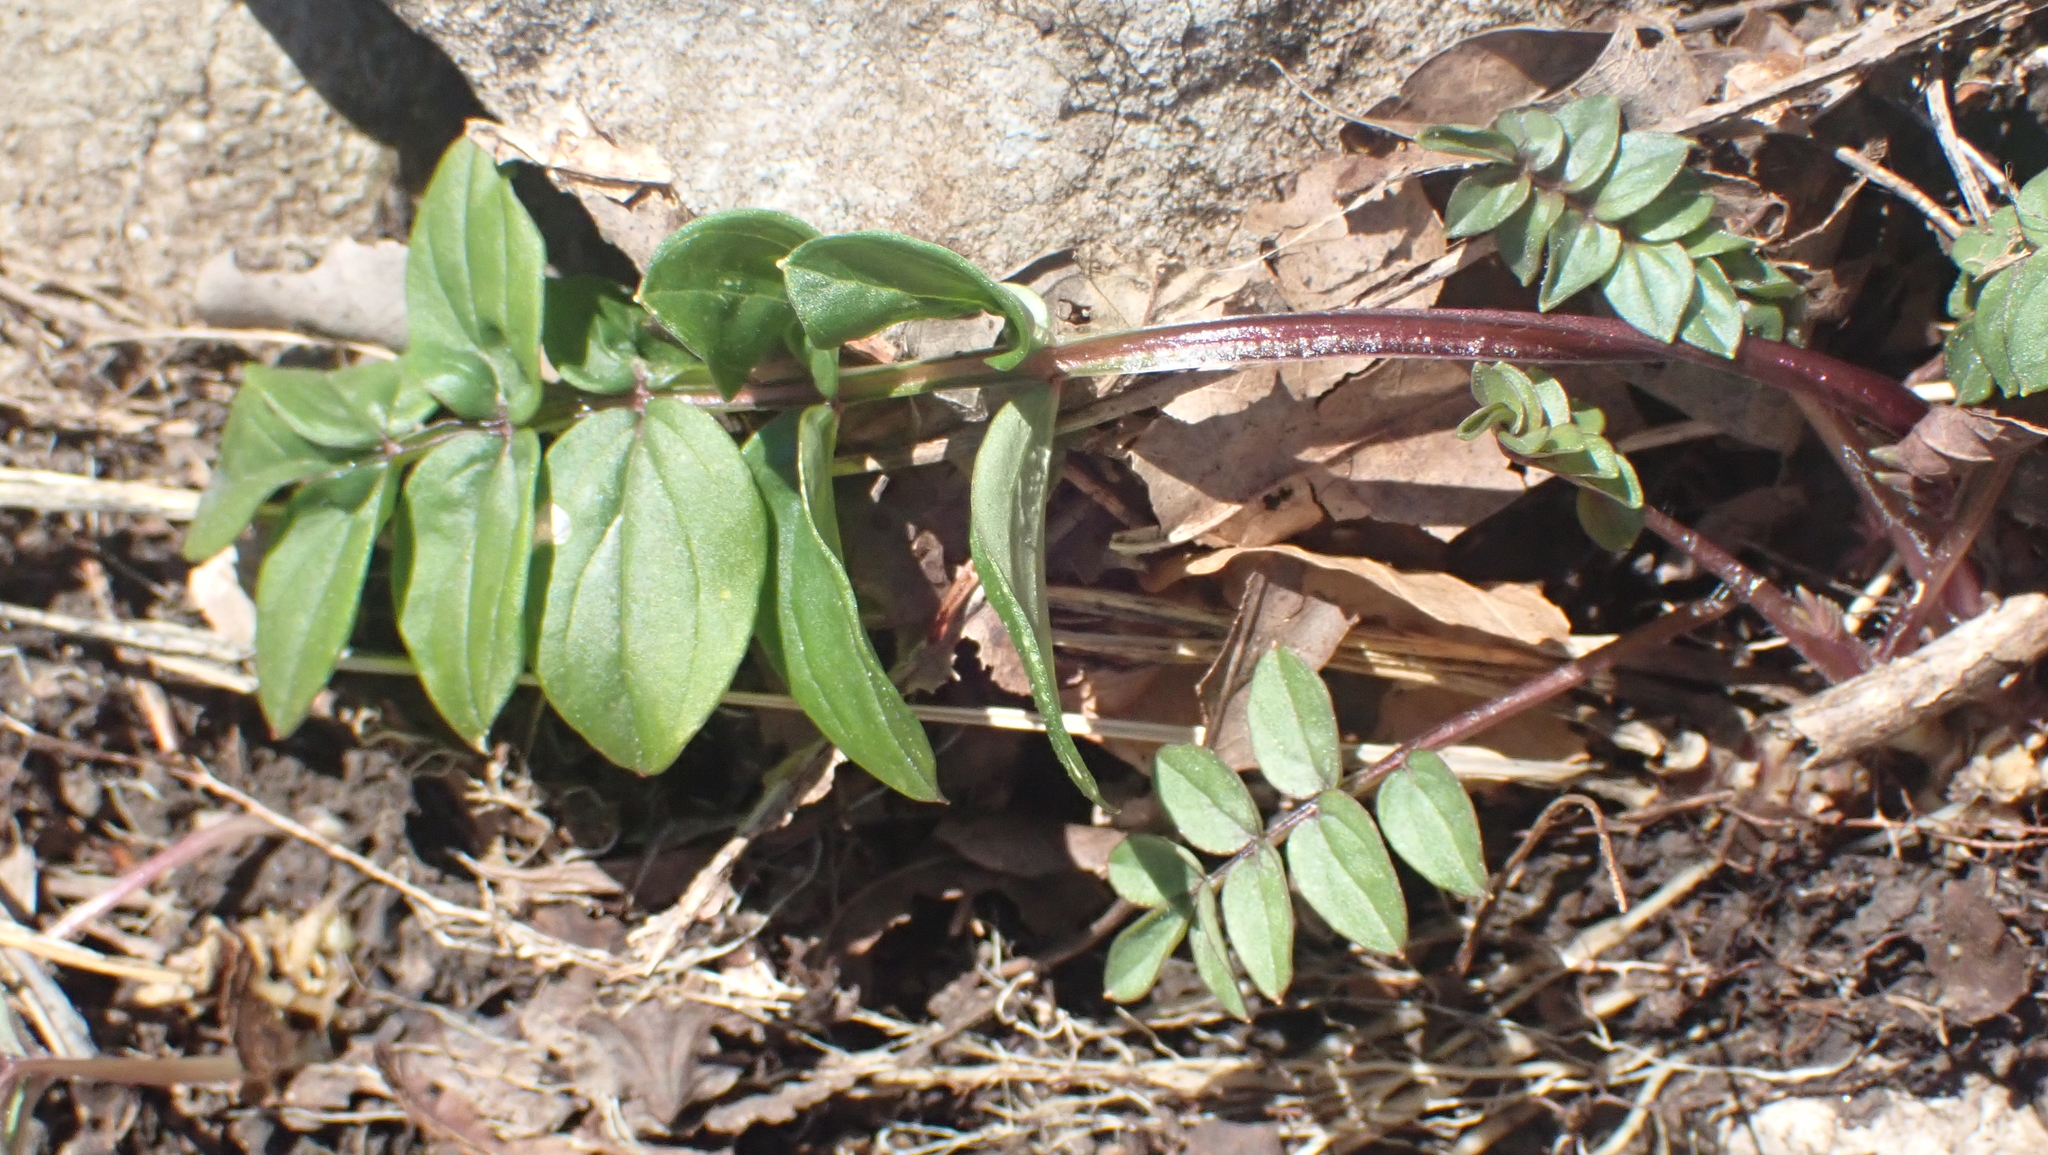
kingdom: Plantae
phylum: Tracheophyta
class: Magnoliopsida
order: Ericales
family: Polemoniaceae
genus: Polemonium
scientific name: Polemonium reptans
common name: Creeping jacob's-ladder
